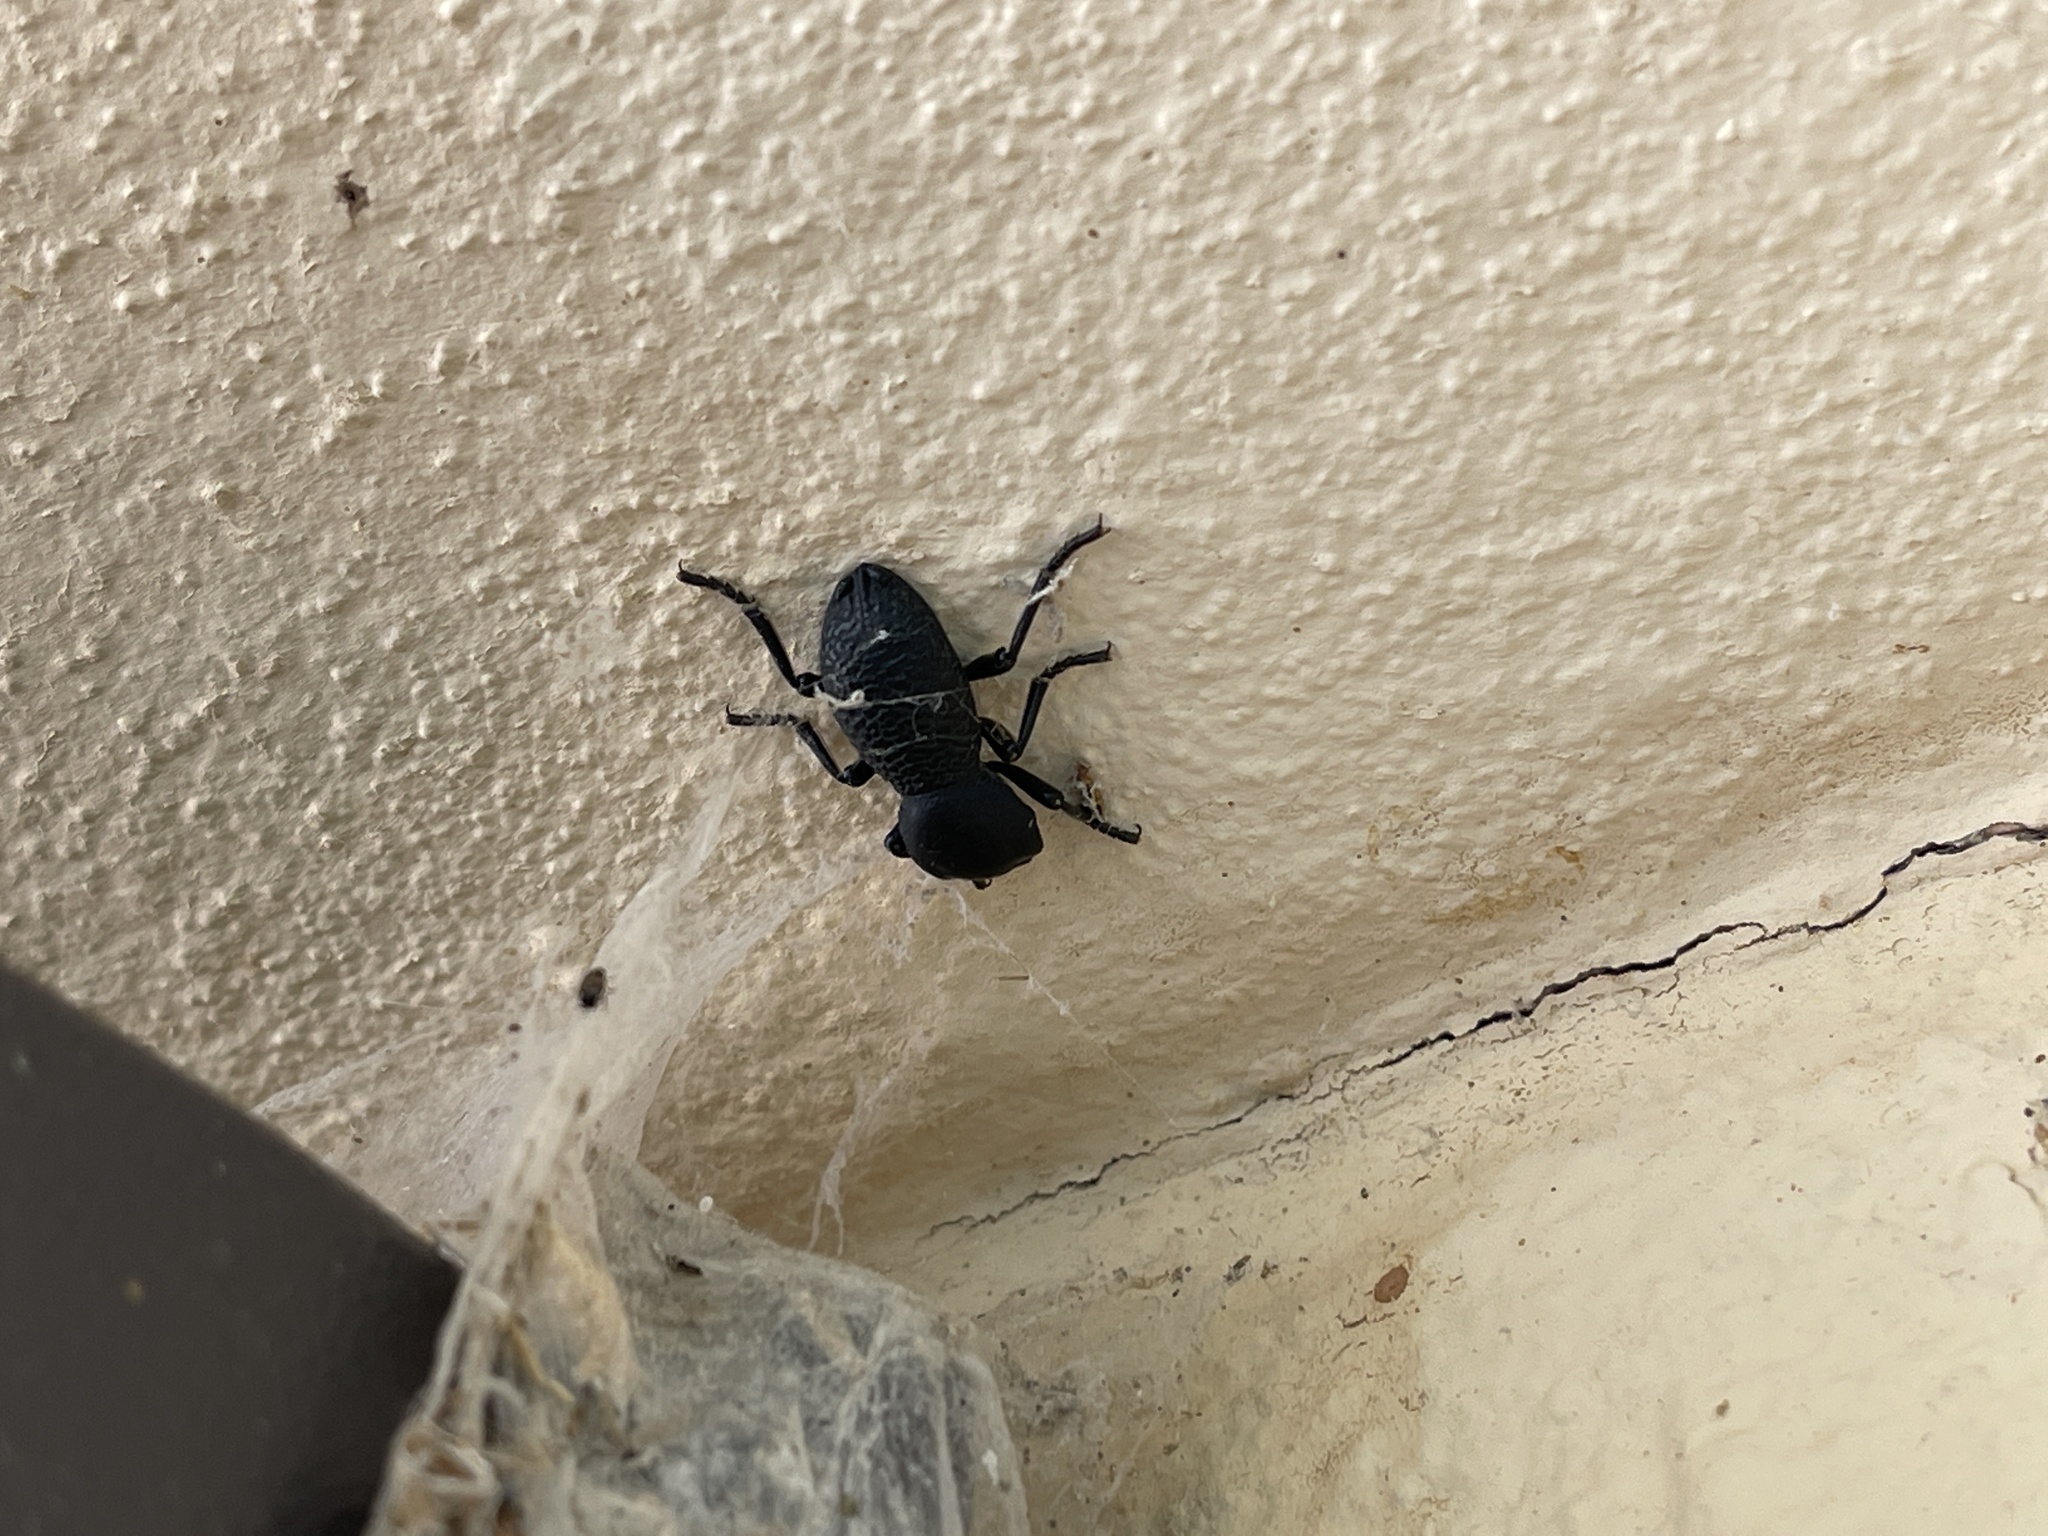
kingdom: Animalia
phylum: Arthropoda
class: Insecta
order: Coleoptera
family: Zopheridae
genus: Zopherus
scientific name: Zopherus concolor
